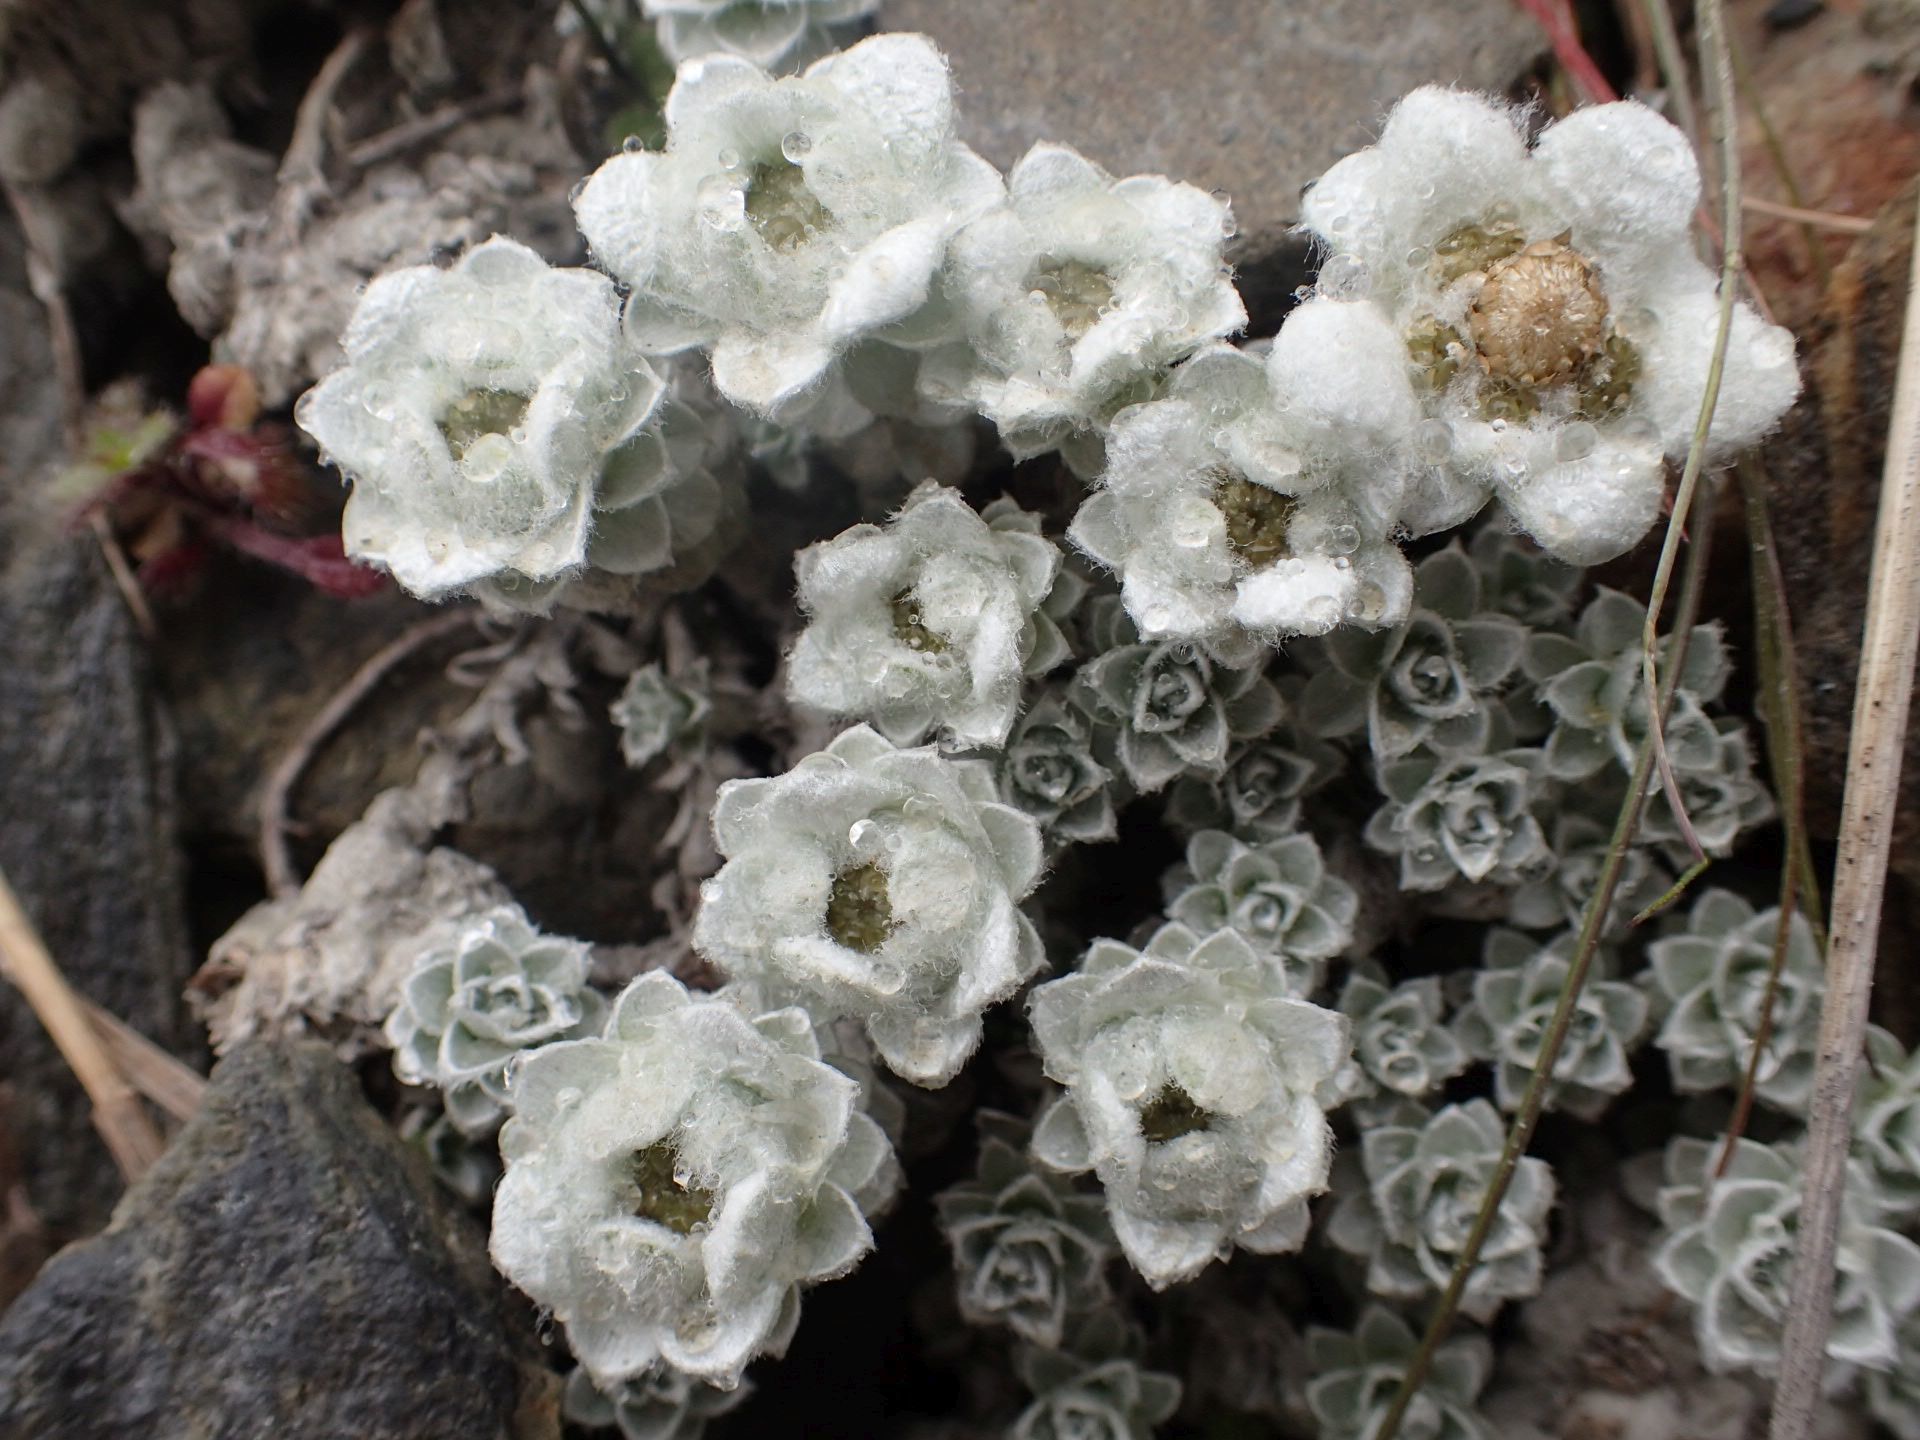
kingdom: Plantae
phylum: Tracheophyta
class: Magnoliopsida
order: Asterales
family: Asteraceae
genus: Leucogenes
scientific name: Leucogenes grandiceps
